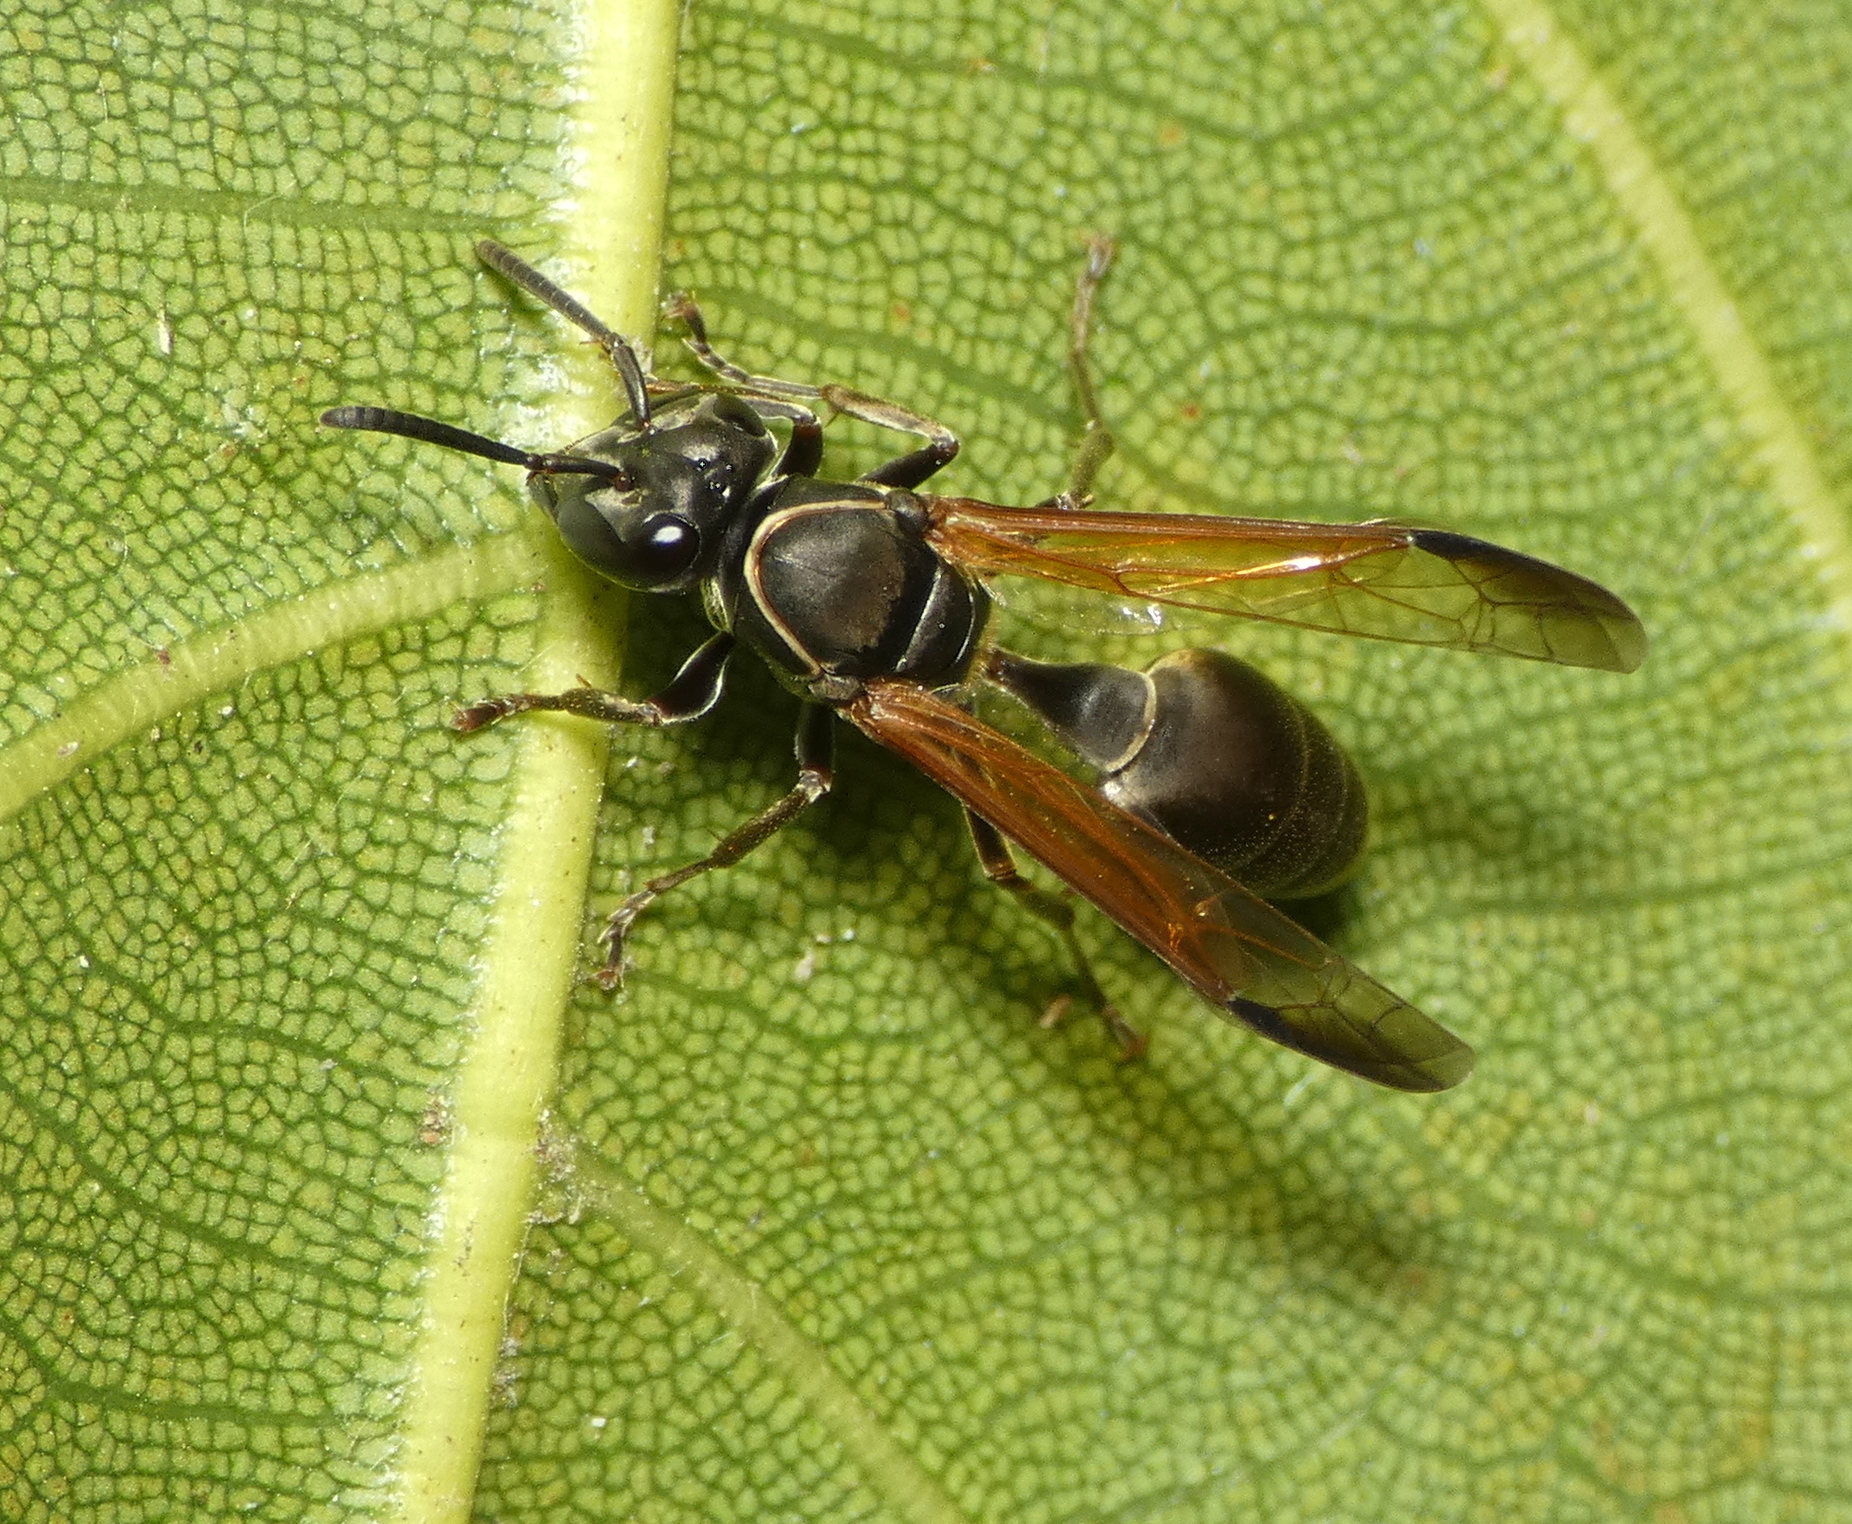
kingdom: Animalia
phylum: Arthropoda
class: Insecta
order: Hymenoptera
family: Eumenidae
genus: Polybia
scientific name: Polybia rejecta
